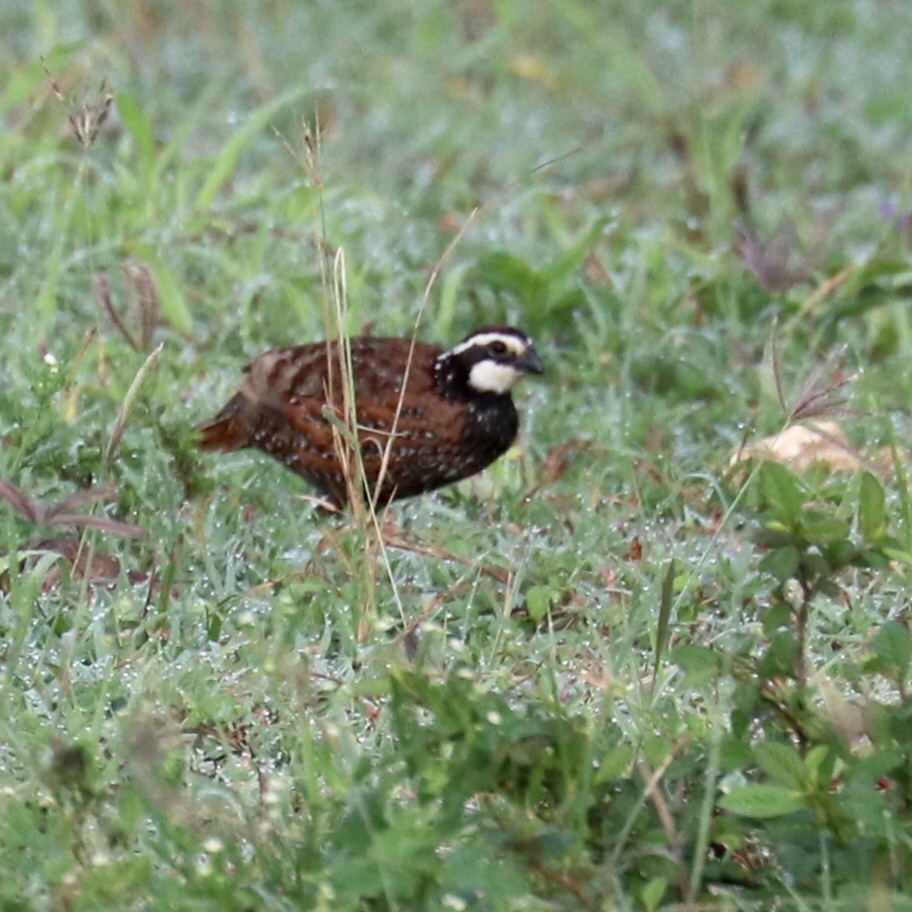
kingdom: Animalia
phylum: Chordata
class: Aves
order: Galliformes
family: Odontophoridae
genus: Colinus
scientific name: Colinus virginianus
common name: Northern bobwhite
